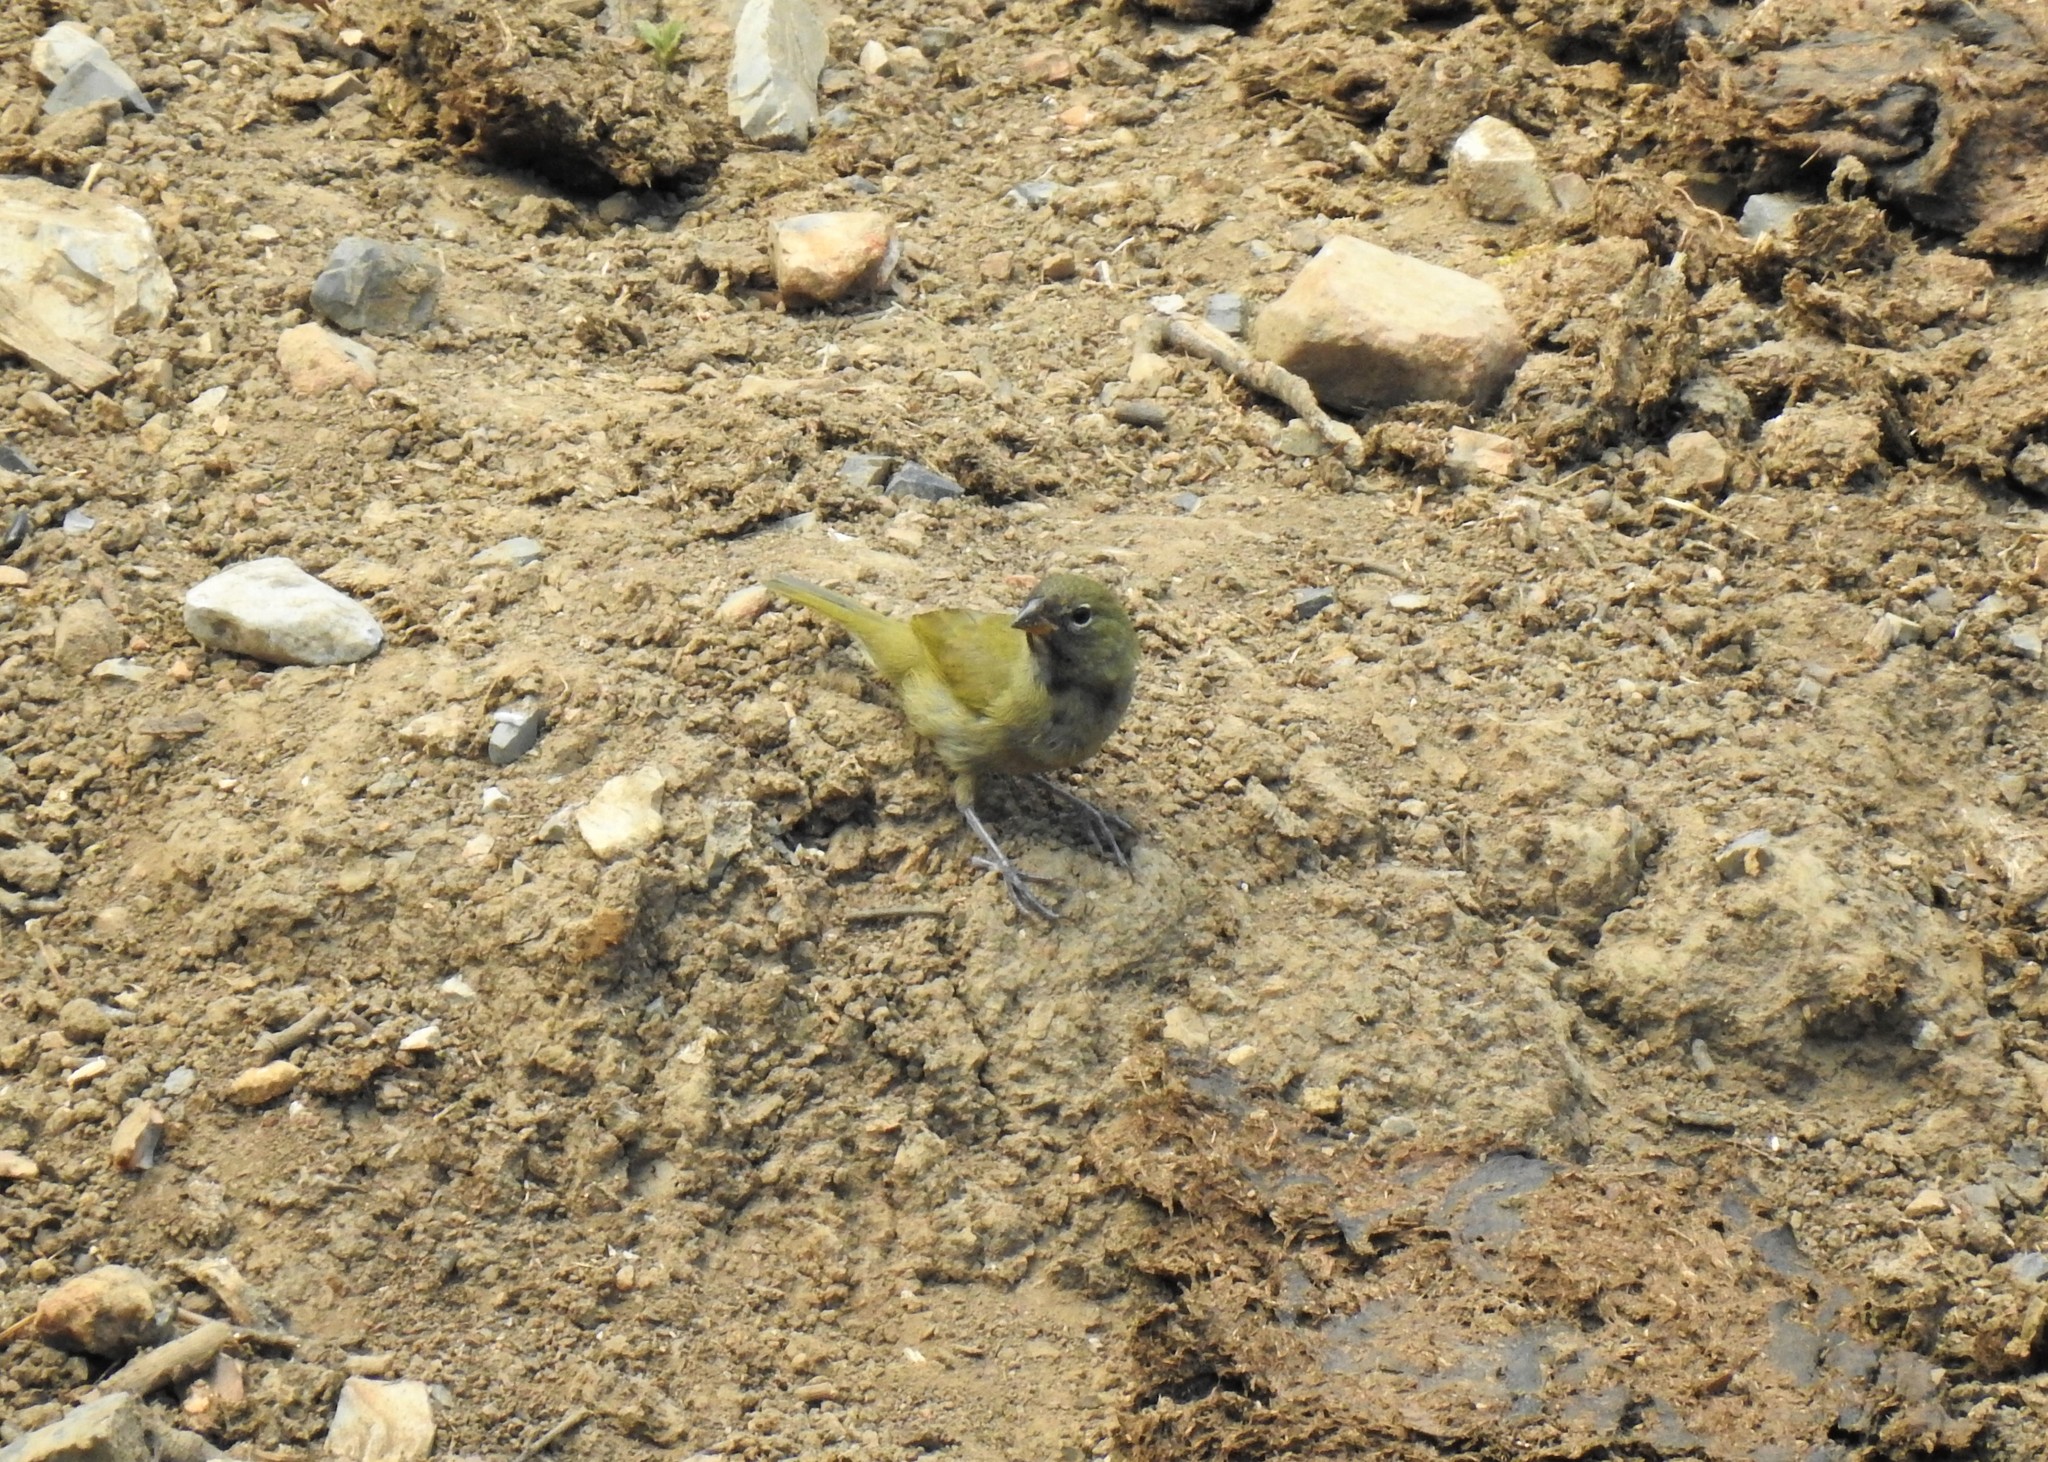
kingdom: Animalia
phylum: Chordata
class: Aves
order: Passeriformes
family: Thraupidae
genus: Tiaris
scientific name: Tiaris olivaceus
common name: Yellow-faced grassquit
